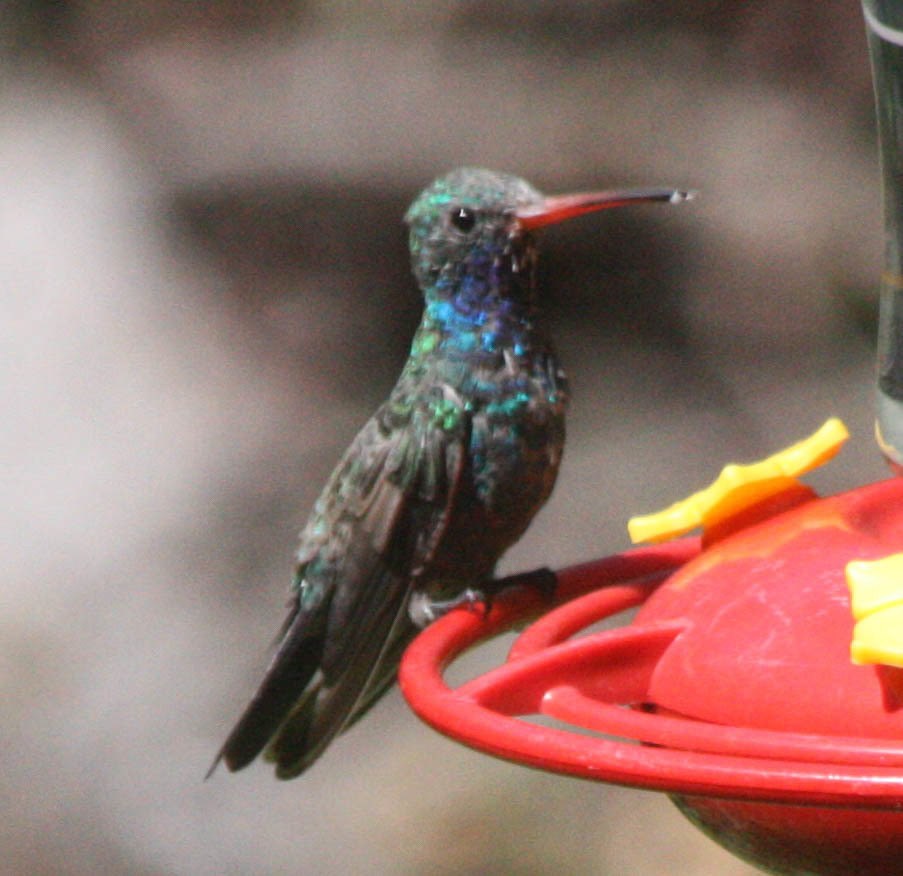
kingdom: Animalia
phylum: Chordata
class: Aves
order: Apodiformes
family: Trochilidae
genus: Cynanthus
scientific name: Cynanthus latirostris
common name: Broad-billed hummingbird
